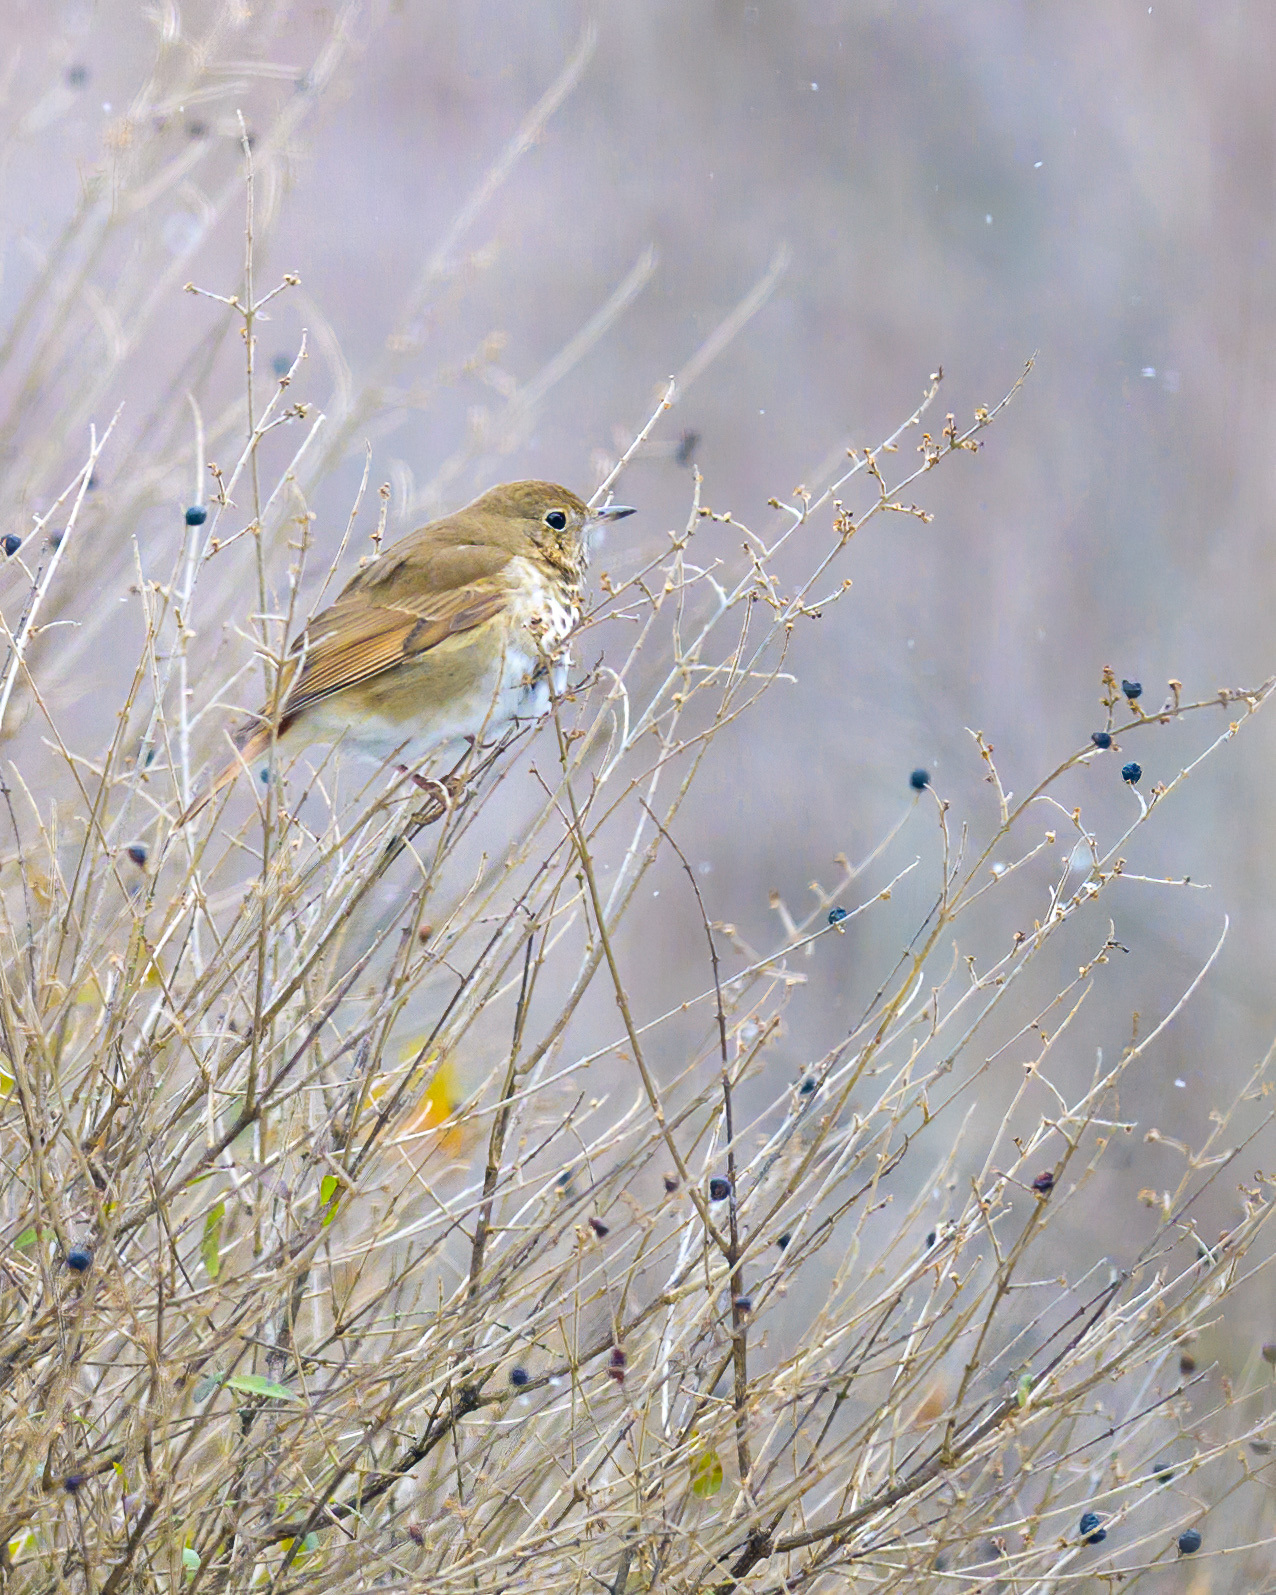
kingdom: Animalia
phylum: Chordata
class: Aves
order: Passeriformes
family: Turdidae
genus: Catharus
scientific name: Catharus guttatus
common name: Hermit thrush
